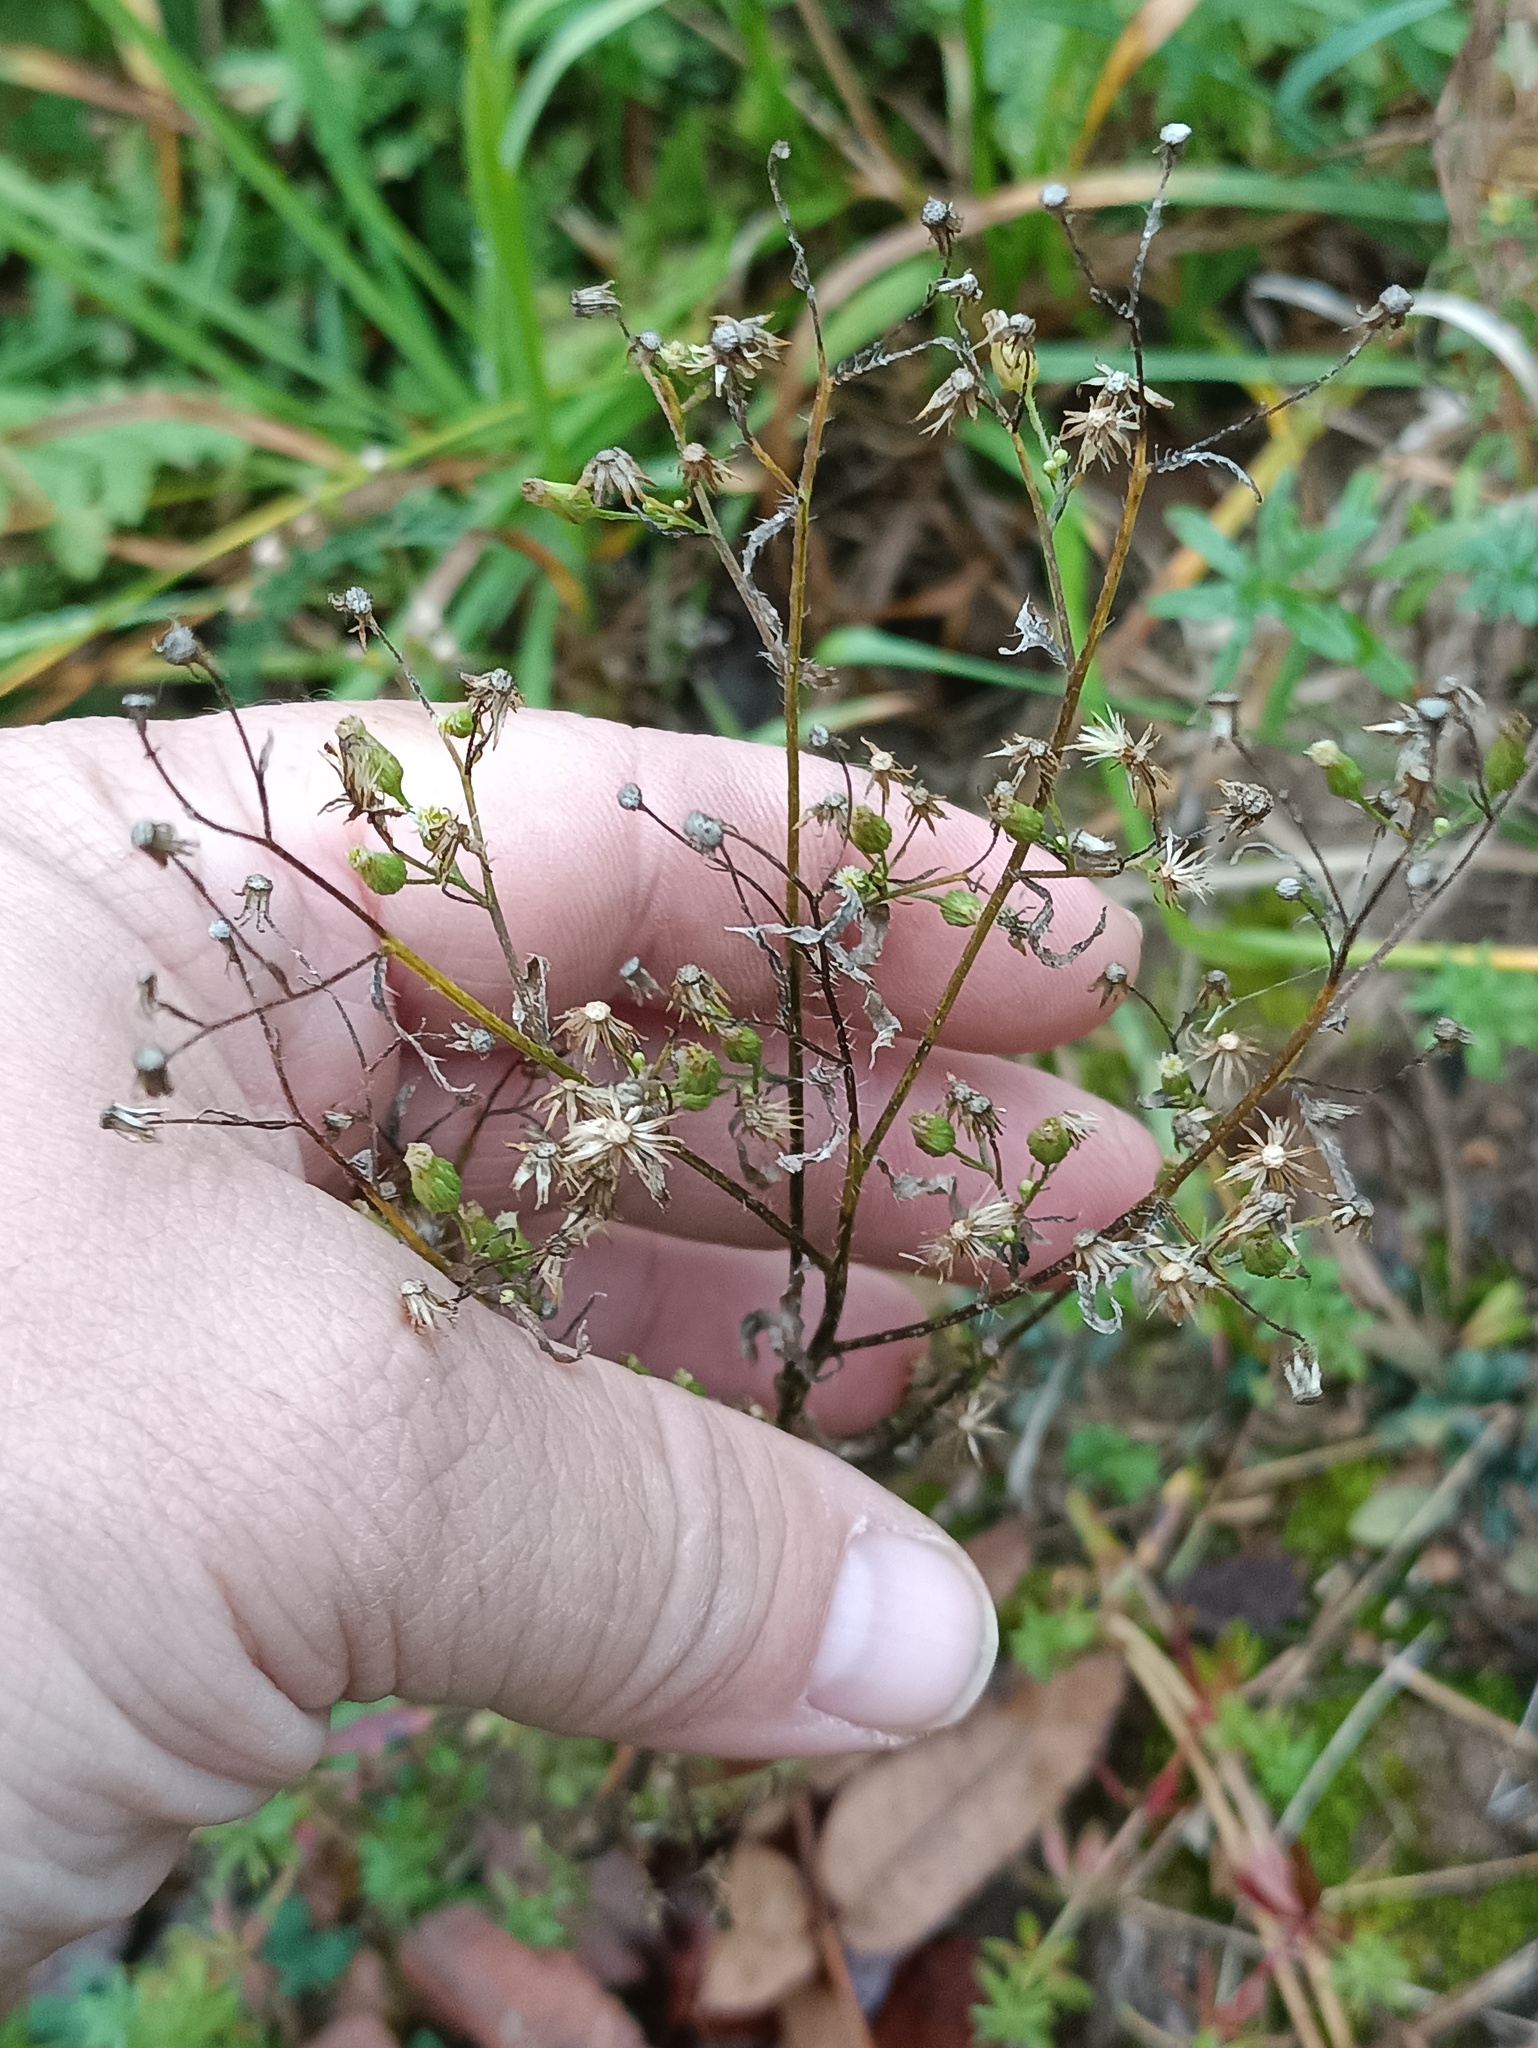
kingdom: Plantae
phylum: Tracheophyta
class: Magnoliopsida
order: Asterales
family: Asteraceae
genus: Erigeron
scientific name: Erigeron canadensis
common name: Canadian fleabane
